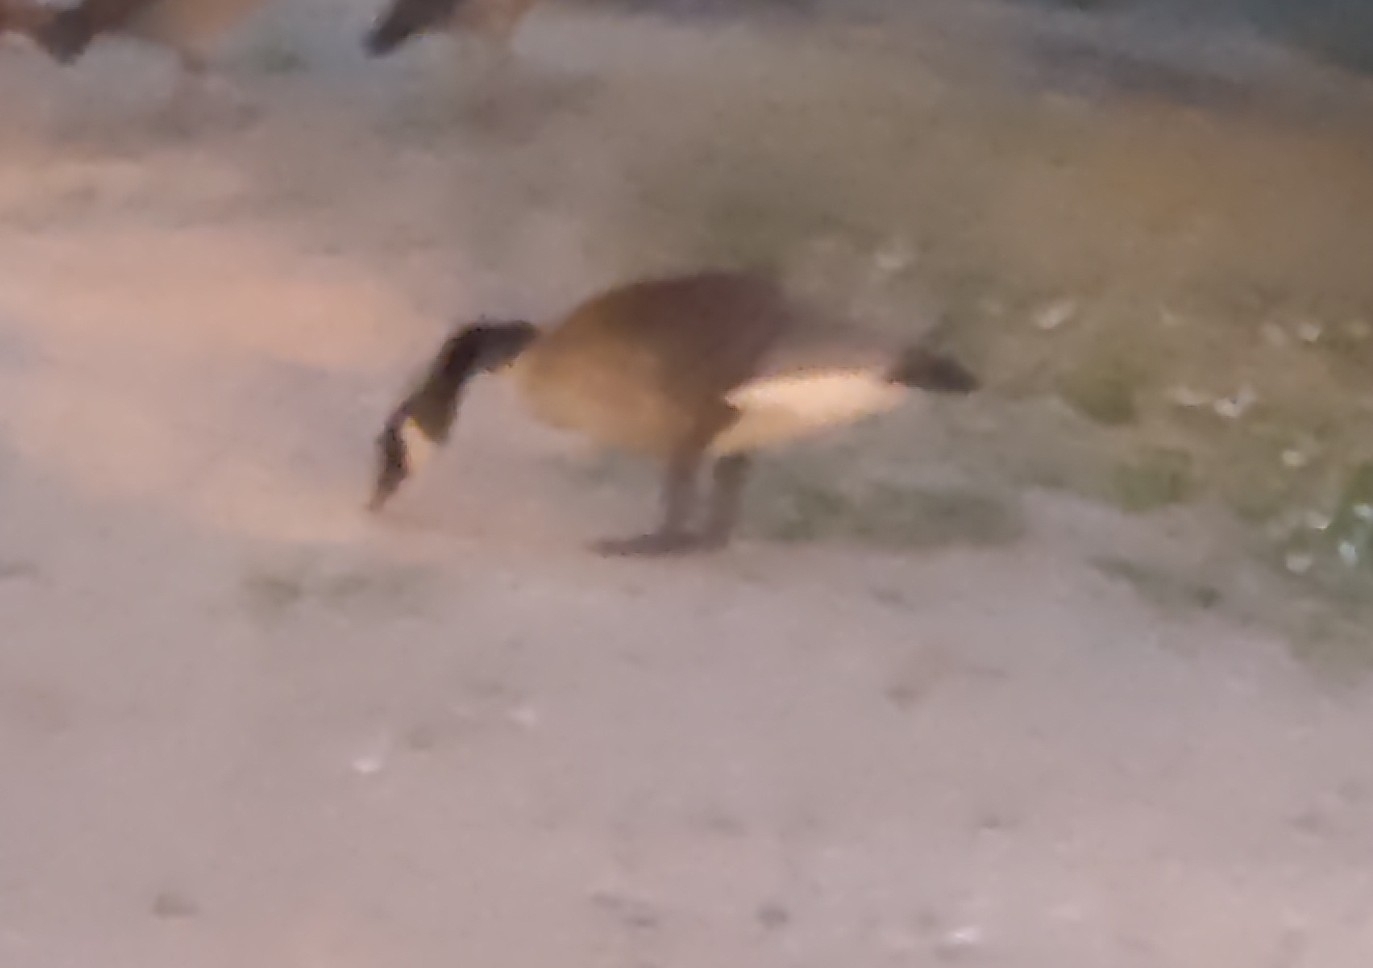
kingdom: Animalia
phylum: Chordata
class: Aves
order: Anseriformes
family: Anatidae
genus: Branta
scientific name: Branta canadensis
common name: Canada goose
